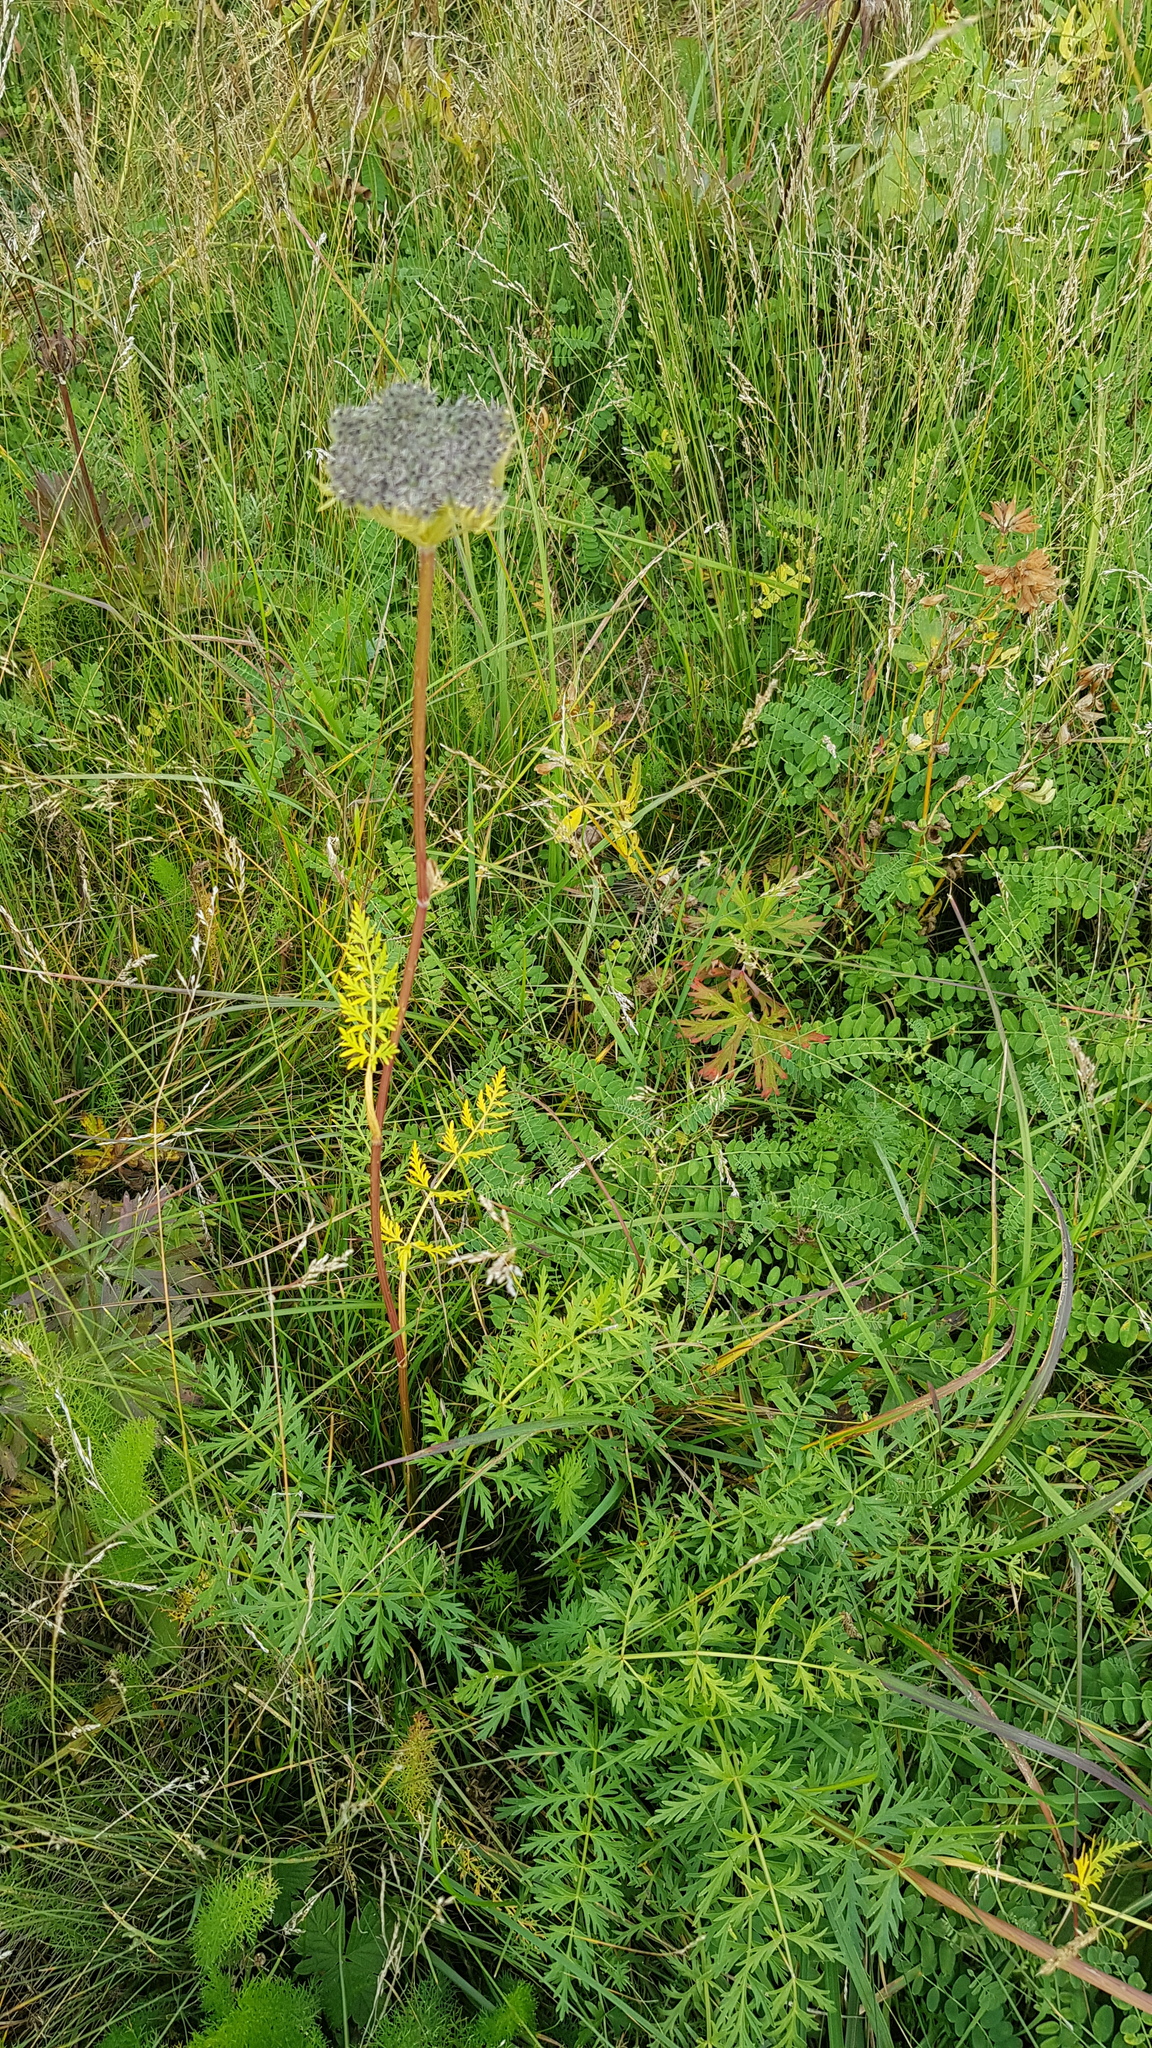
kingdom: Plantae
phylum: Tracheophyta
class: Magnoliopsida
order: Apiales
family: Apiaceae
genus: Seseli
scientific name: Seseli condensatum
